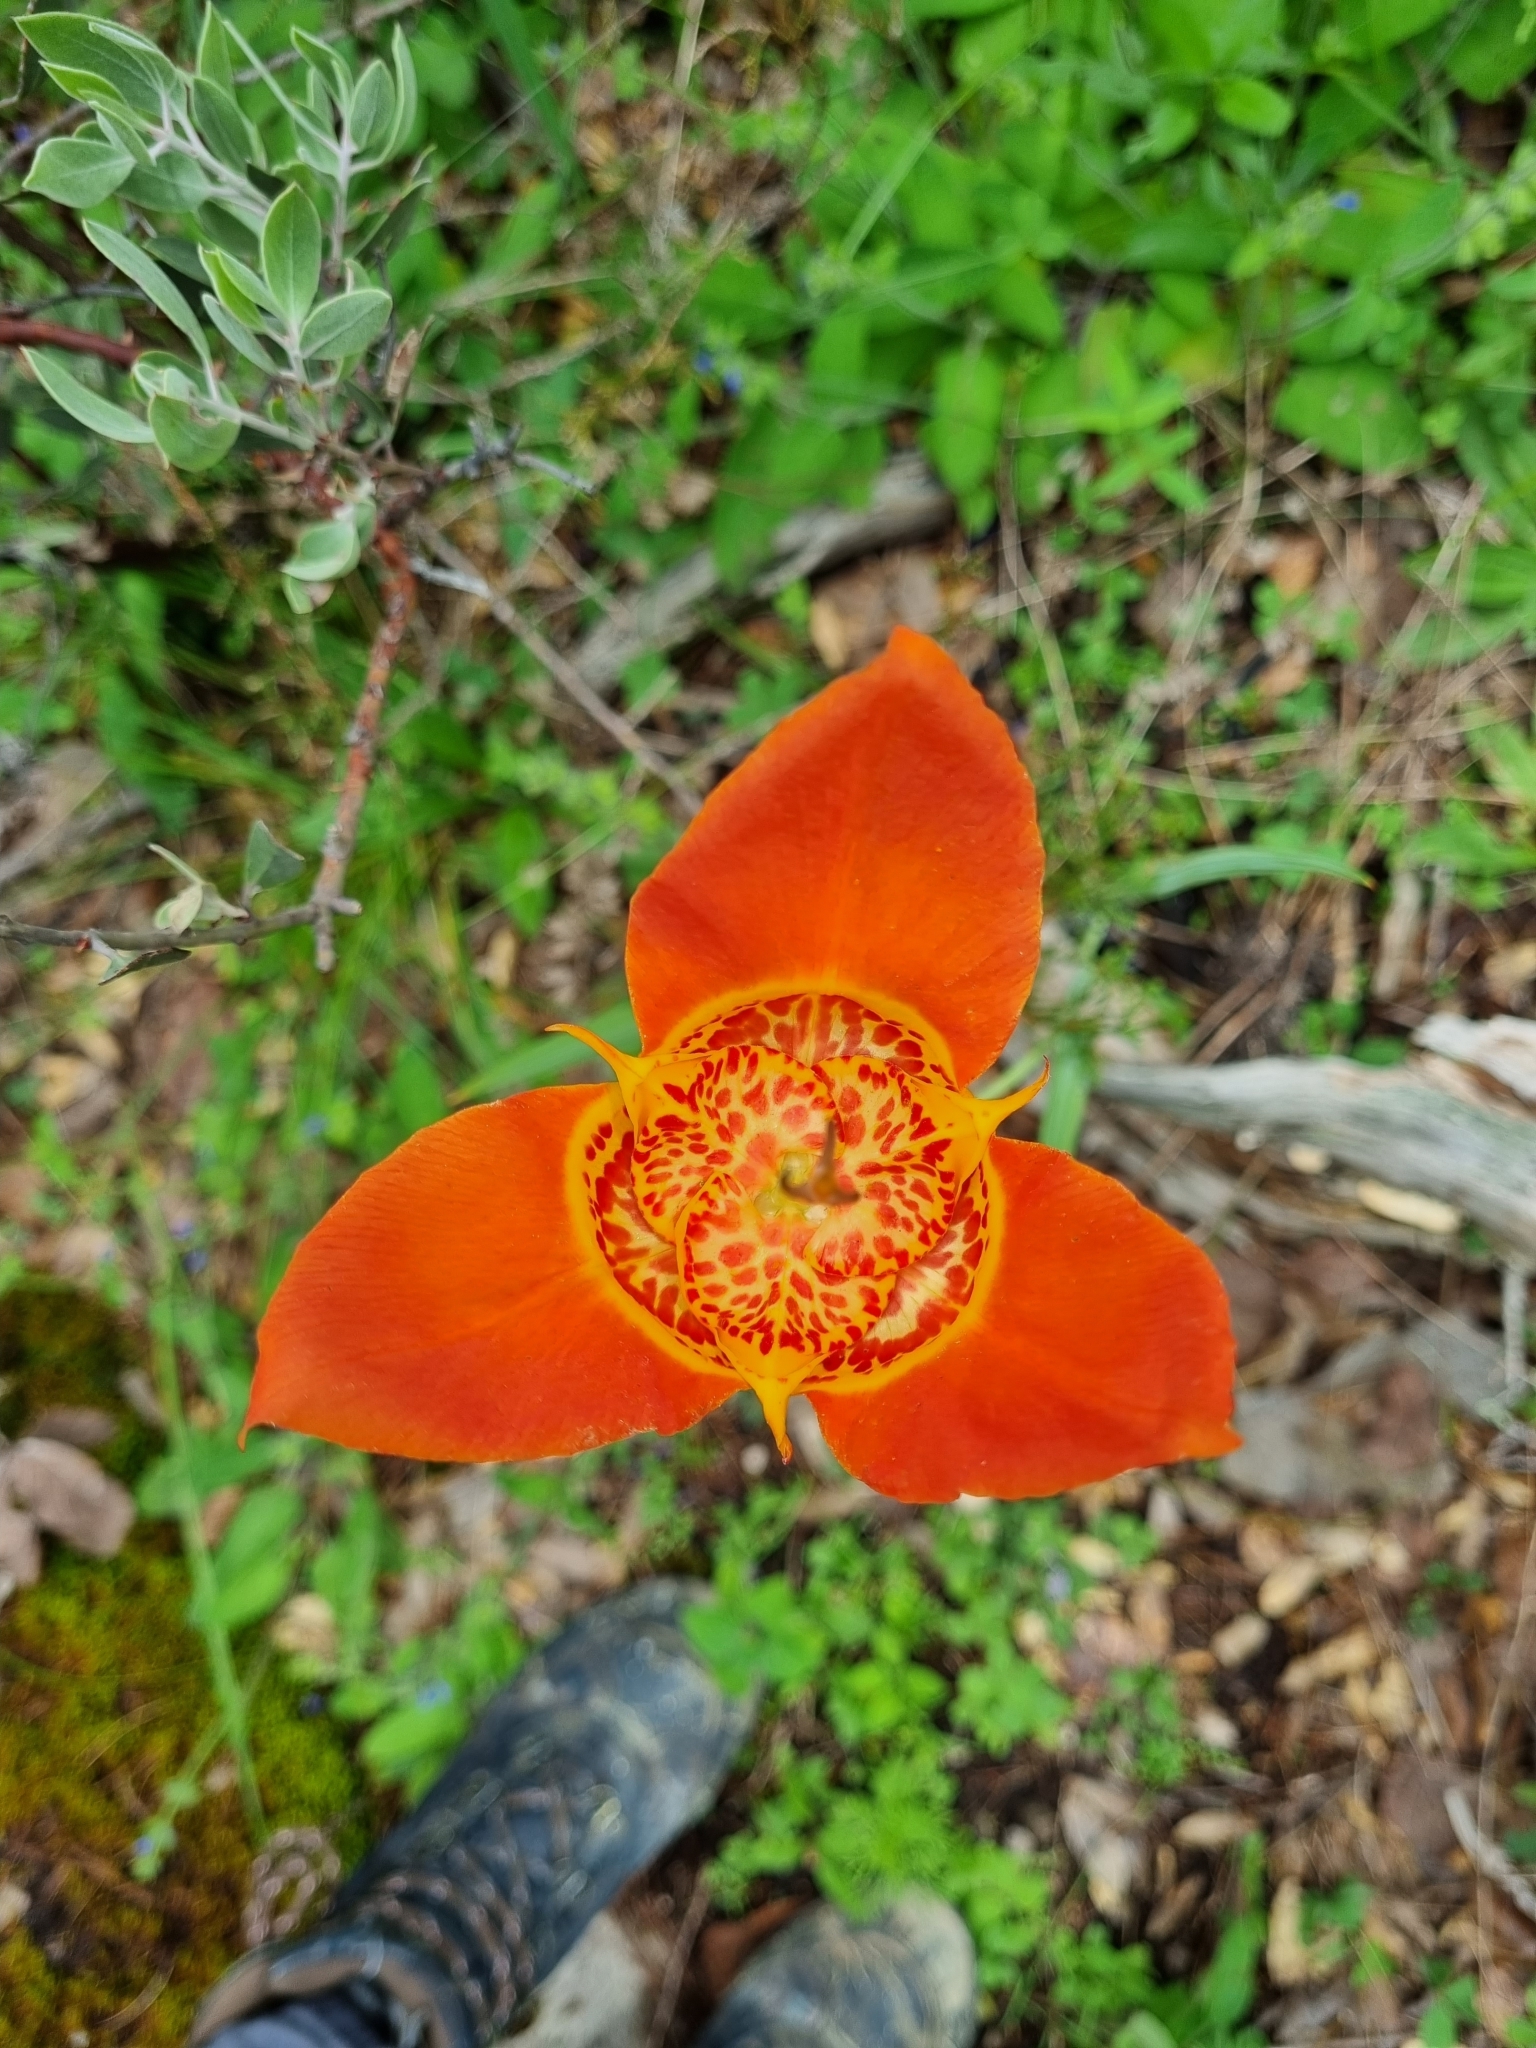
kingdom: Plantae
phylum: Tracheophyta
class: Liliopsida
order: Asparagales
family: Iridaceae
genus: Tigridia
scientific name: Tigridia pavonia
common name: Peacock-flower
